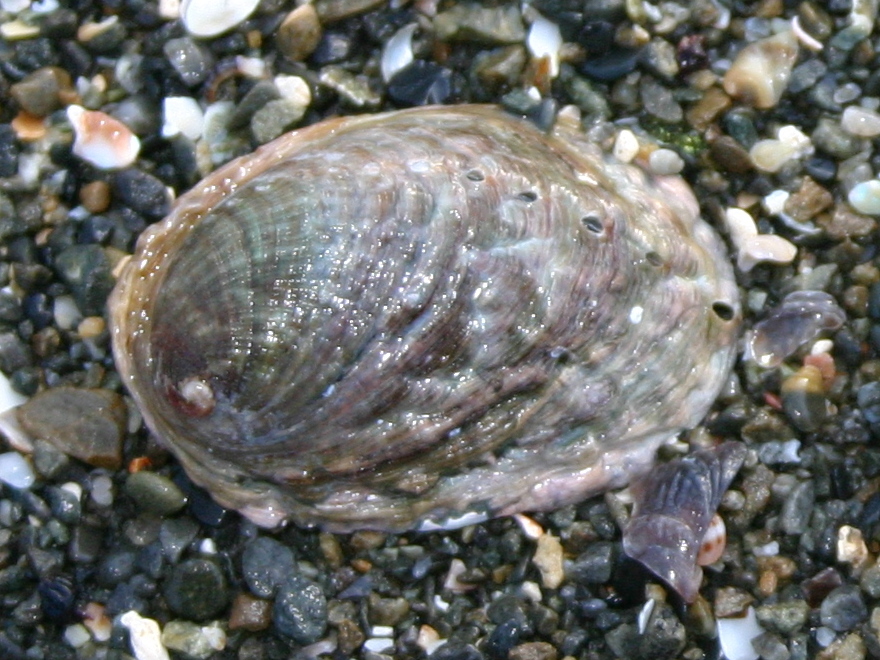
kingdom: Animalia
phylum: Mollusca
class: Gastropoda
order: Lepetellida
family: Haliotidae
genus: Haliotis
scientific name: Haliotis iris
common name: Abalone
